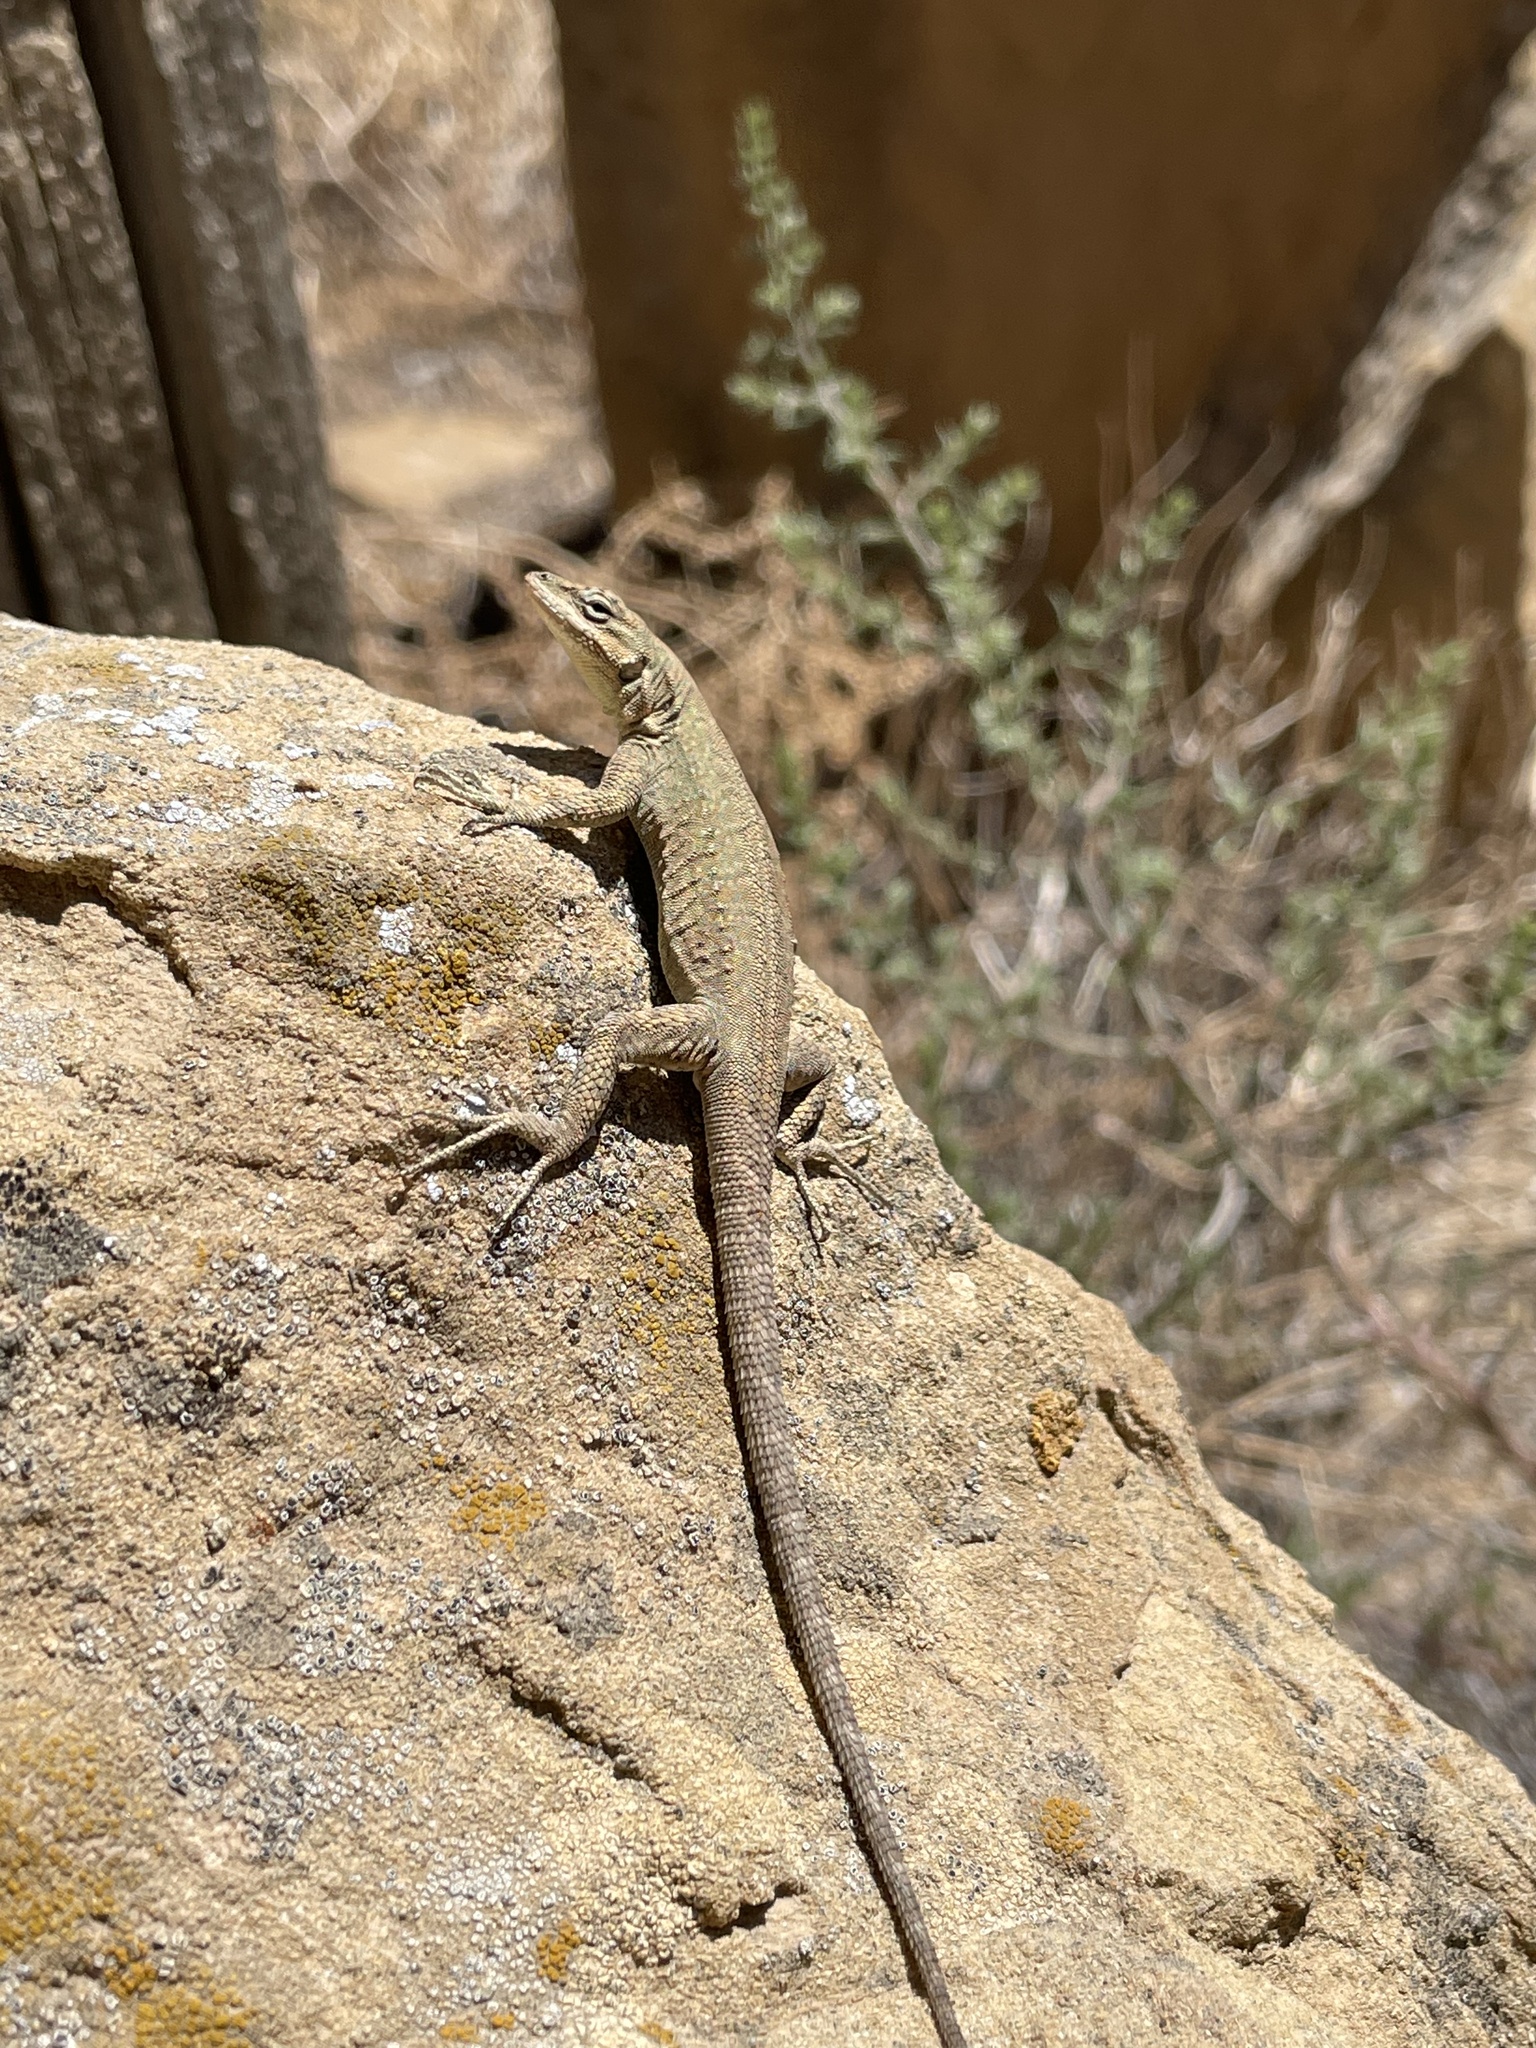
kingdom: Animalia
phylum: Chordata
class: Squamata
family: Phrynosomatidae
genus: Urosaurus
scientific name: Urosaurus ornatus
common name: Ornate tree lizard
